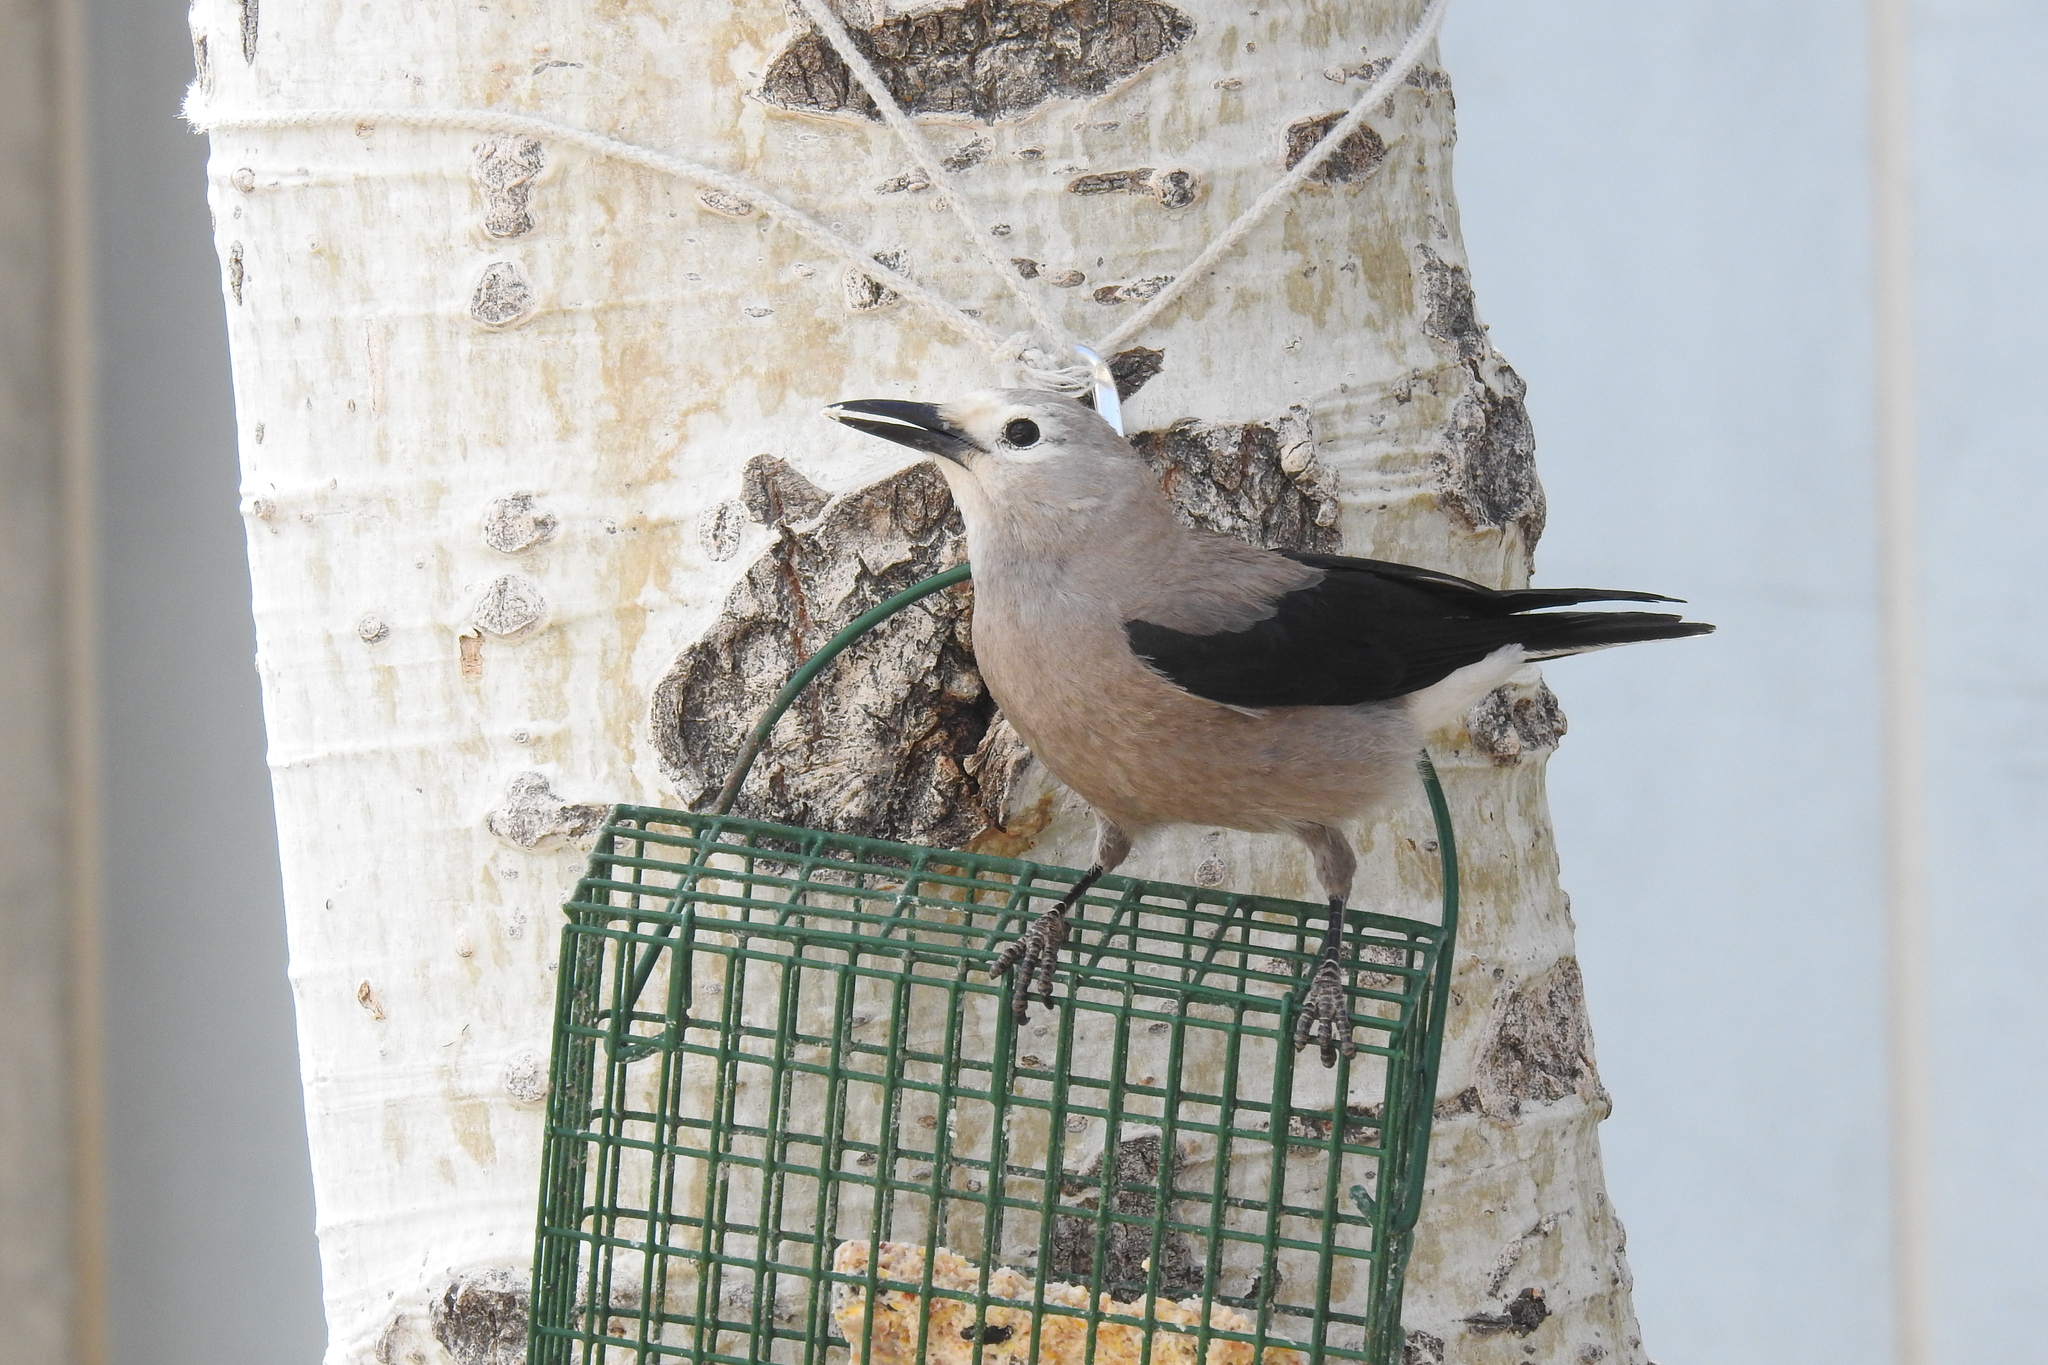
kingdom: Animalia
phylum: Chordata
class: Aves
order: Passeriformes
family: Corvidae
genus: Nucifraga
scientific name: Nucifraga columbiana
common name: Clark's nutcracker
